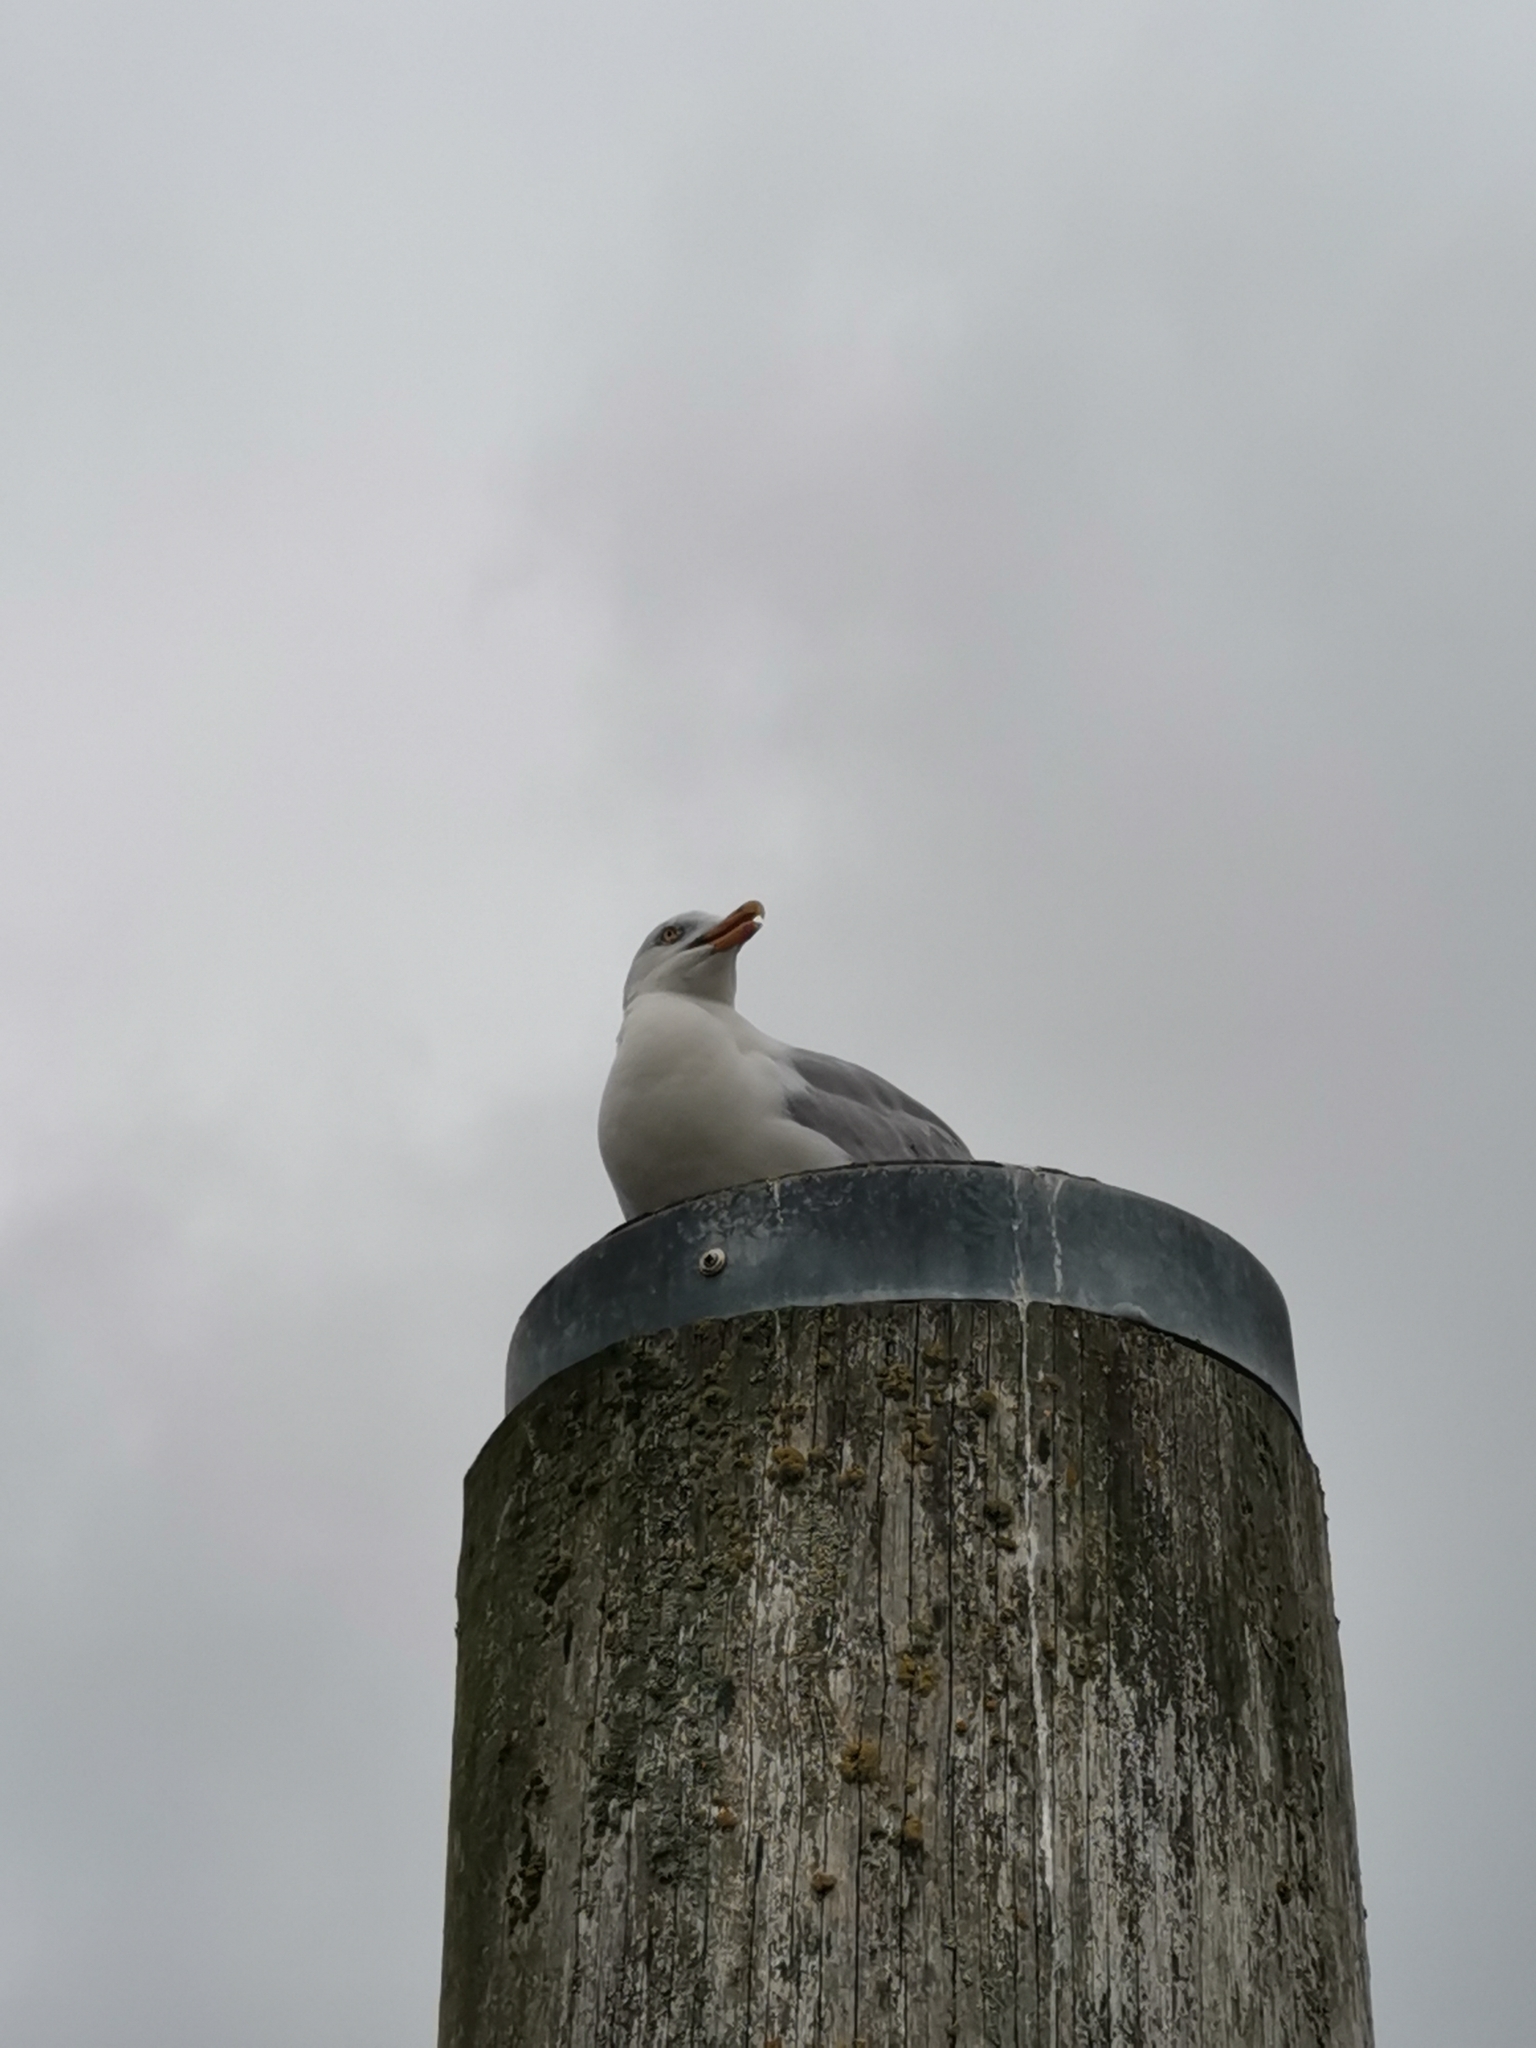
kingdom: Animalia
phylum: Chordata
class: Aves
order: Charadriiformes
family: Laridae
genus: Larus
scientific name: Larus argentatus
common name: Herring gull
